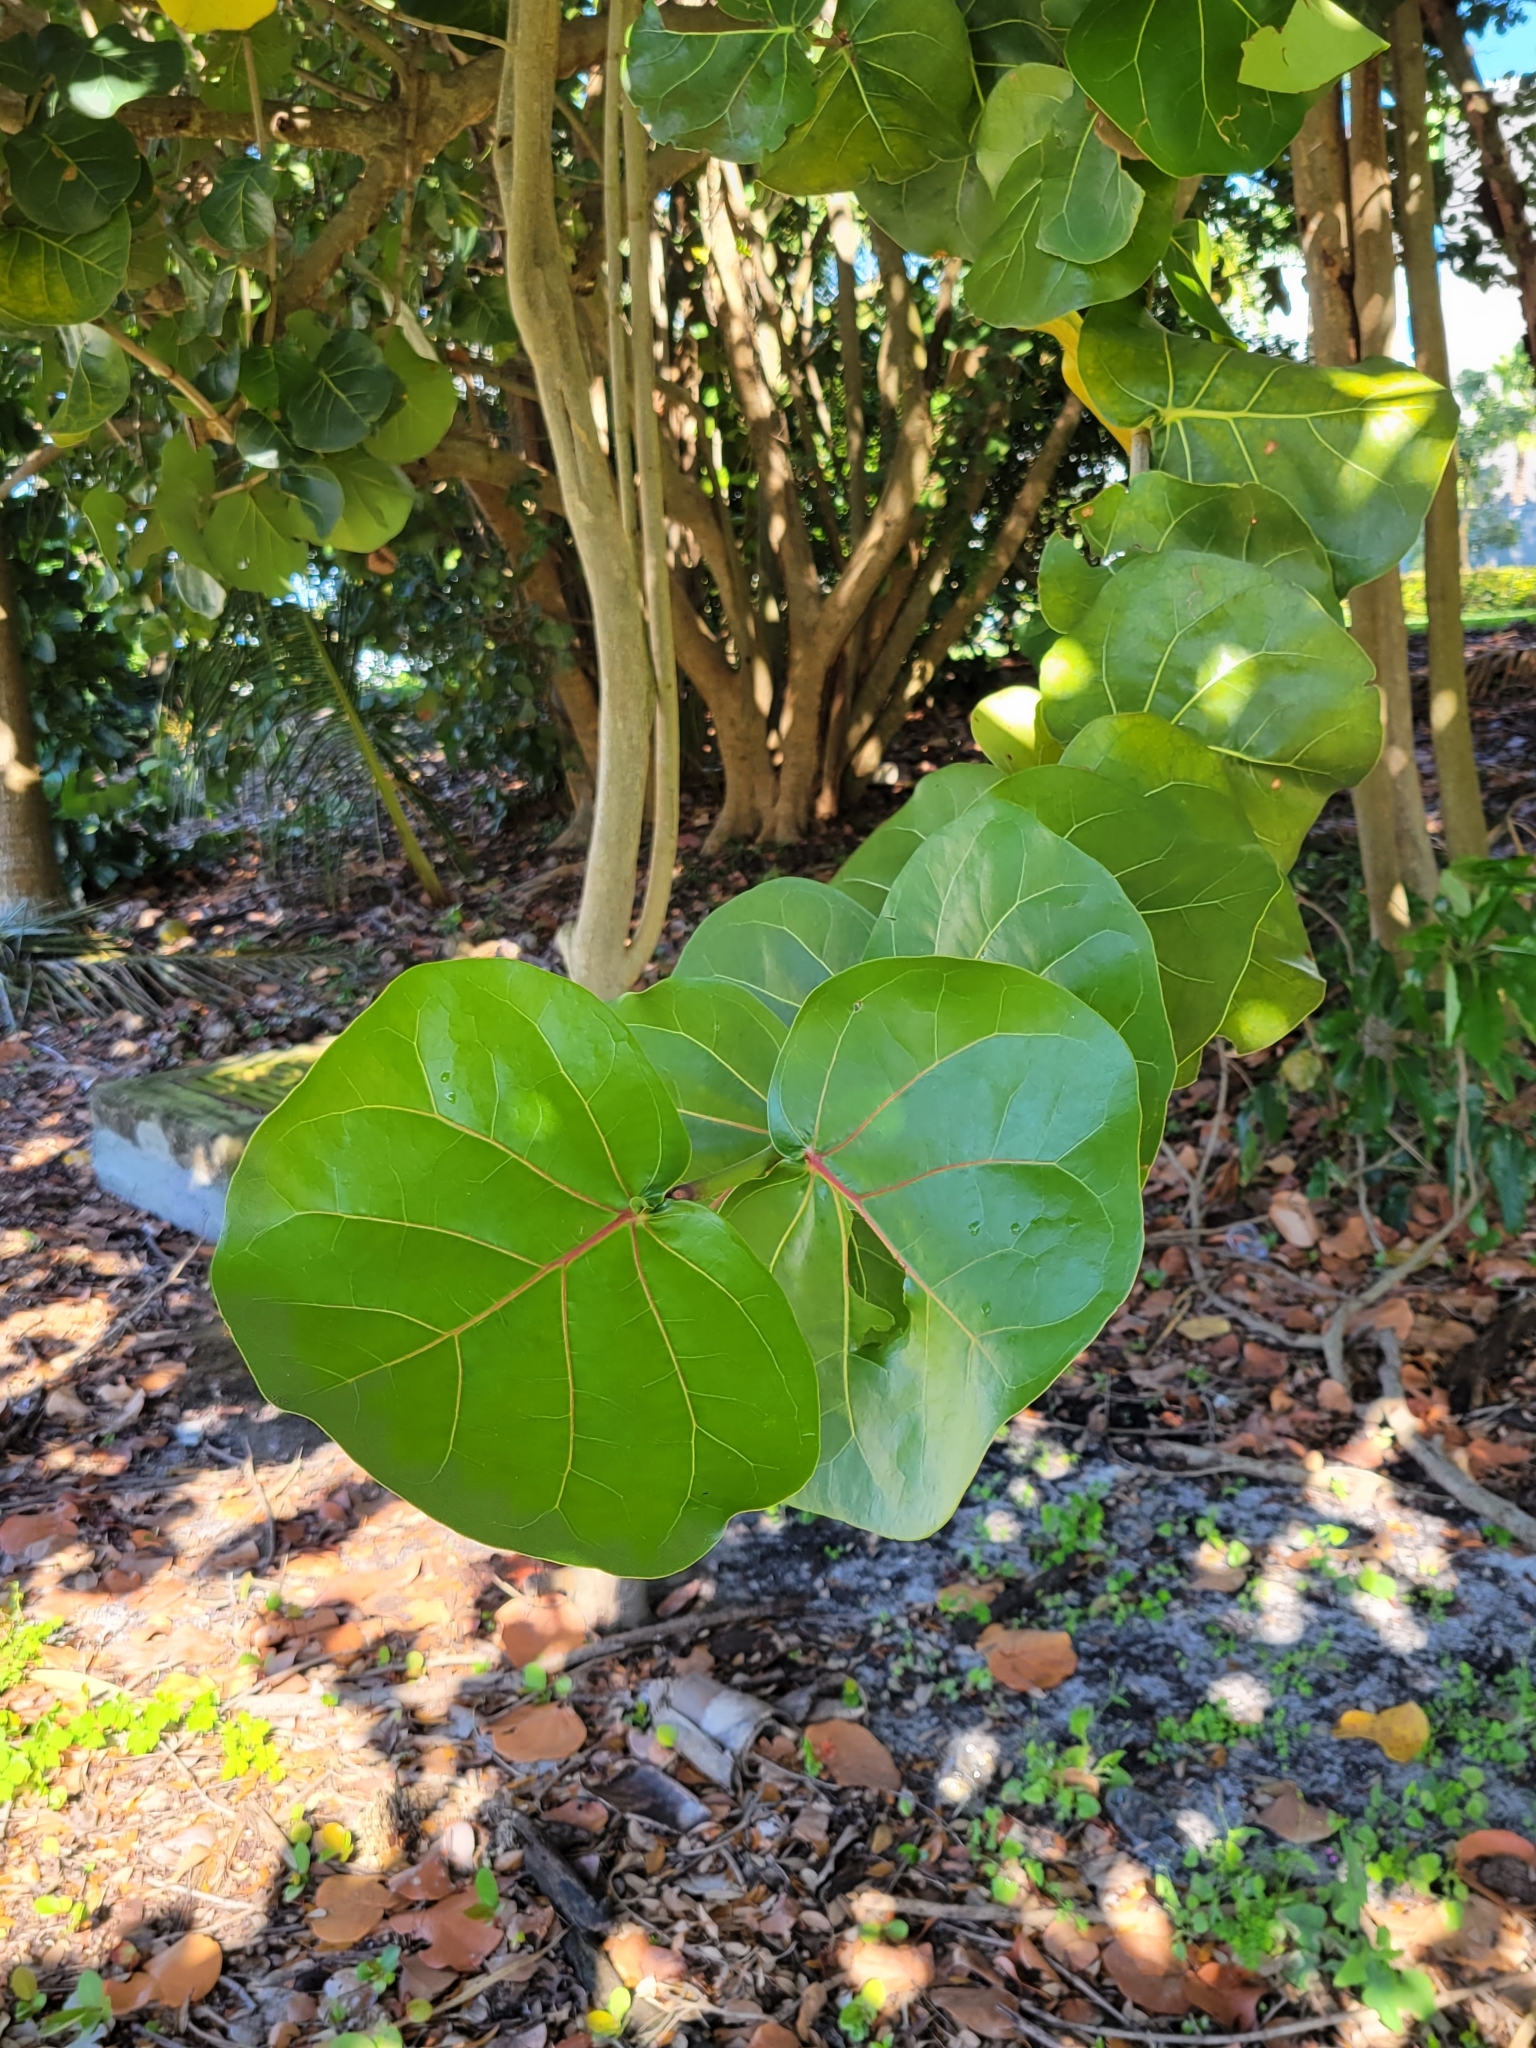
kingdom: Plantae
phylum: Tracheophyta
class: Magnoliopsida
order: Caryophyllales
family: Polygonaceae
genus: Coccoloba
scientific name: Coccoloba uvifera
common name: Seagrape
